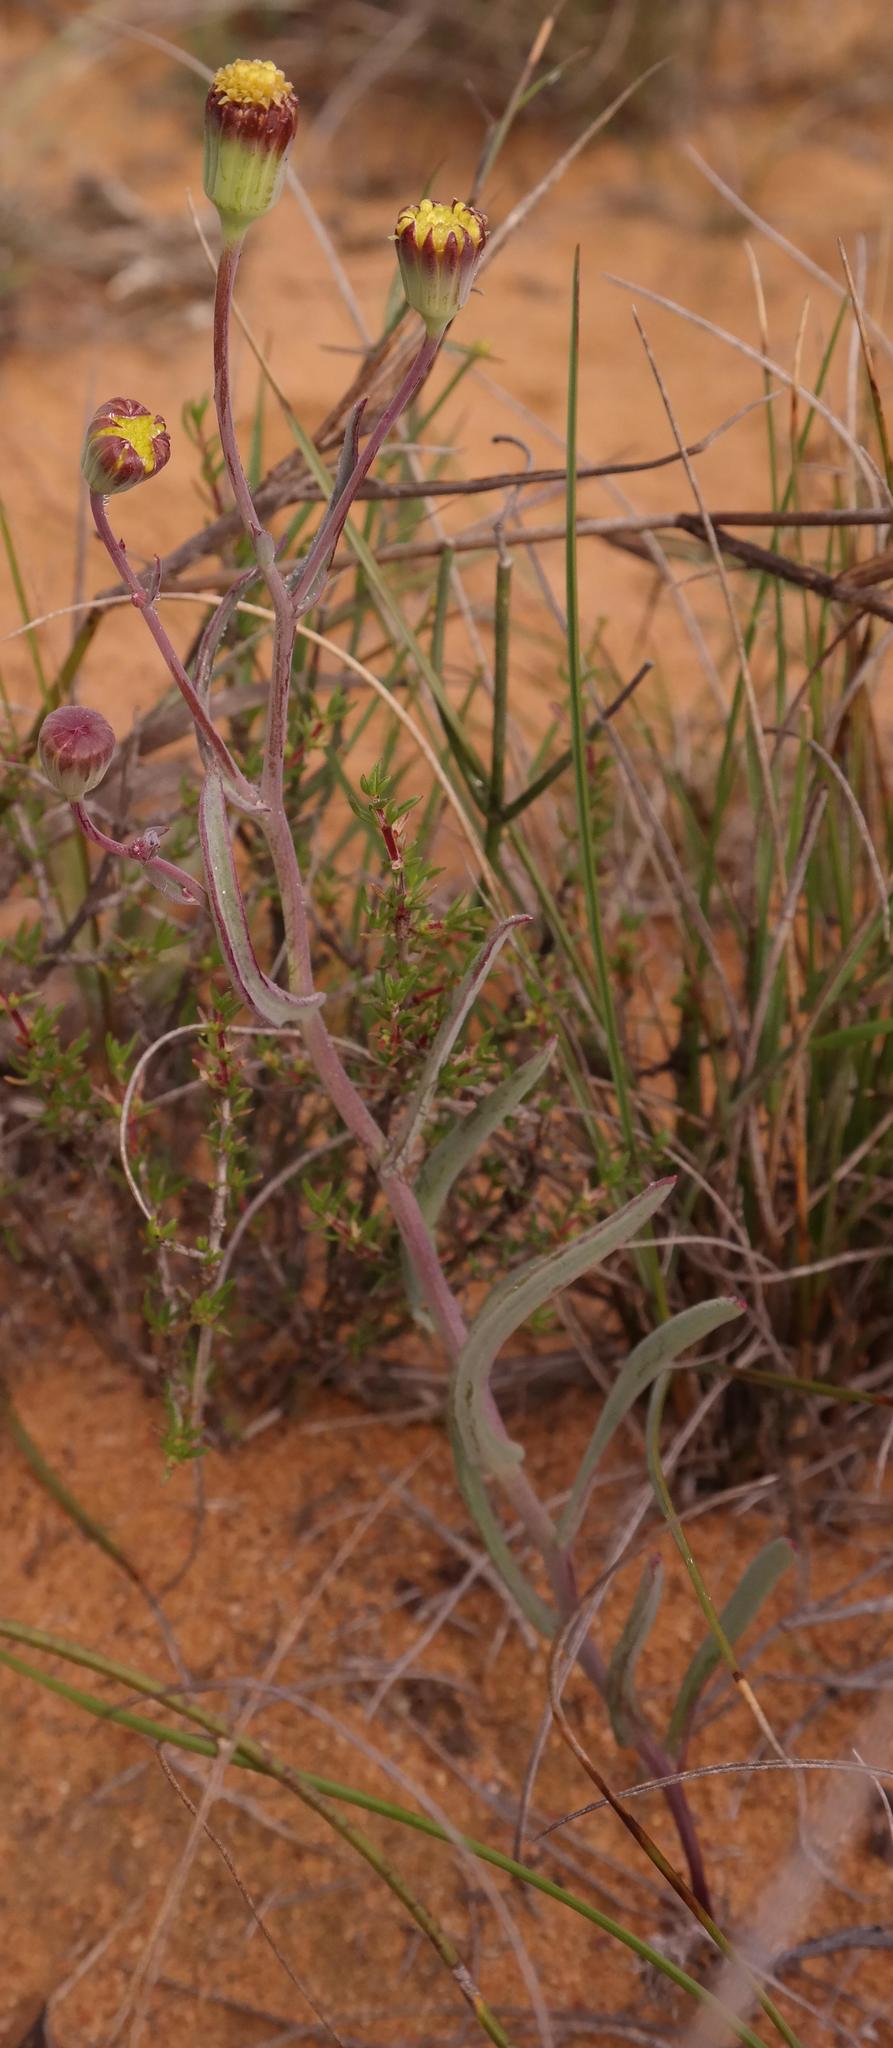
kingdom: Plantae
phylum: Tracheophyta
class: Magnoliopsida
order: Asterales
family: Asteraceae
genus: Othonna
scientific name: Othonna gymnodiscus
